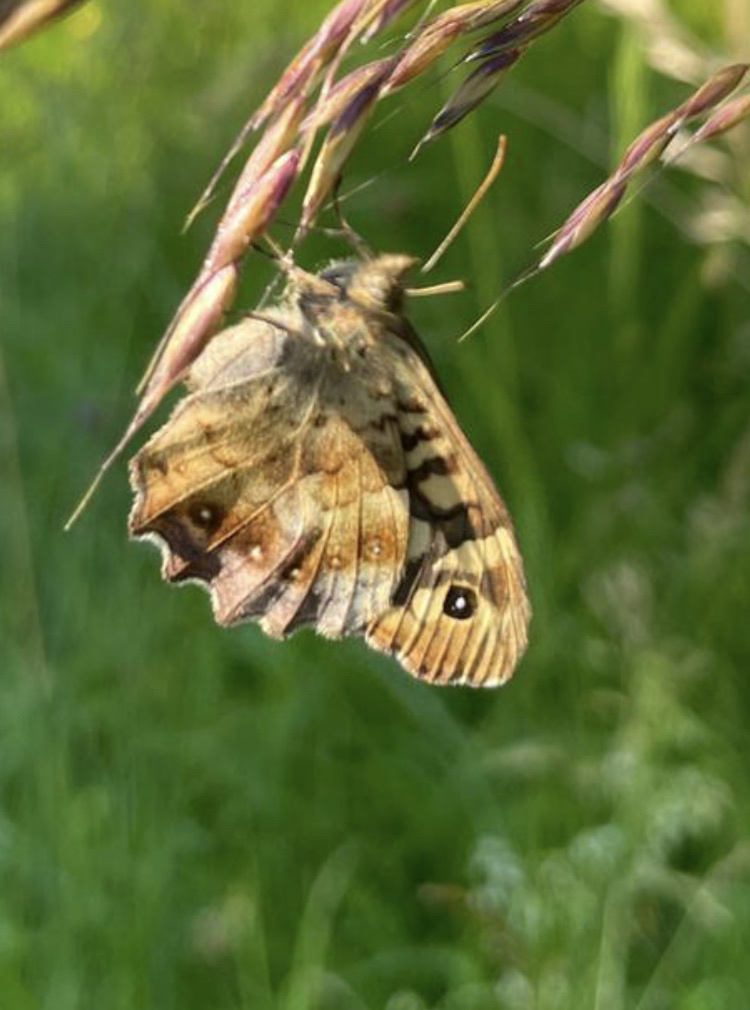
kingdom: Animalia
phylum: Arthropoda
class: Insecta
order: Lepidoptera
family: Nymphalidae
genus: Pararge
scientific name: Pararge aegeria
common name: Speckled wood
